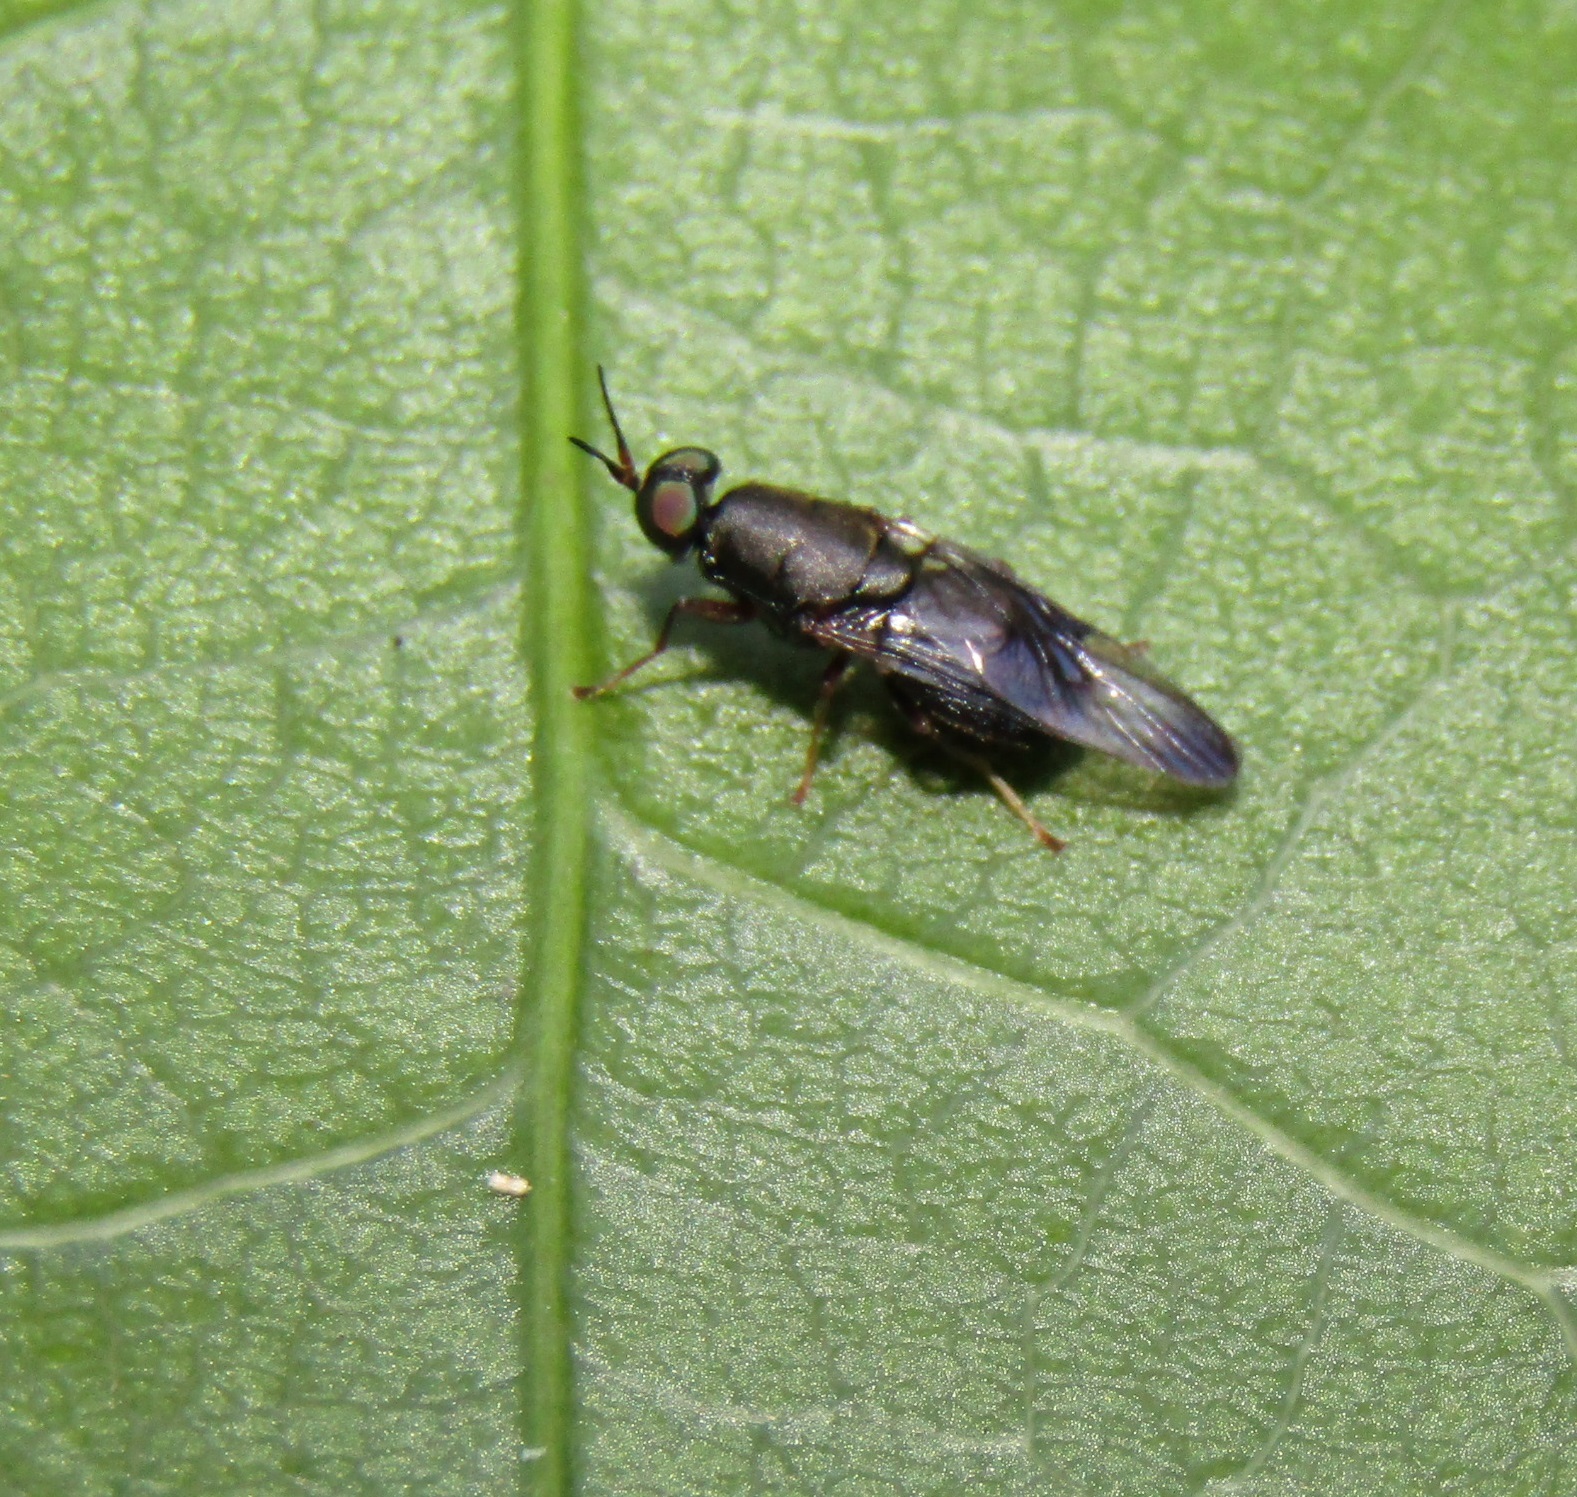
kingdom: Animalia
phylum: Arthropoda
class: Insecta
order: Diptera
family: Stratiomyidae
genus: Dysbiota
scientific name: Dysbiota peregrina
